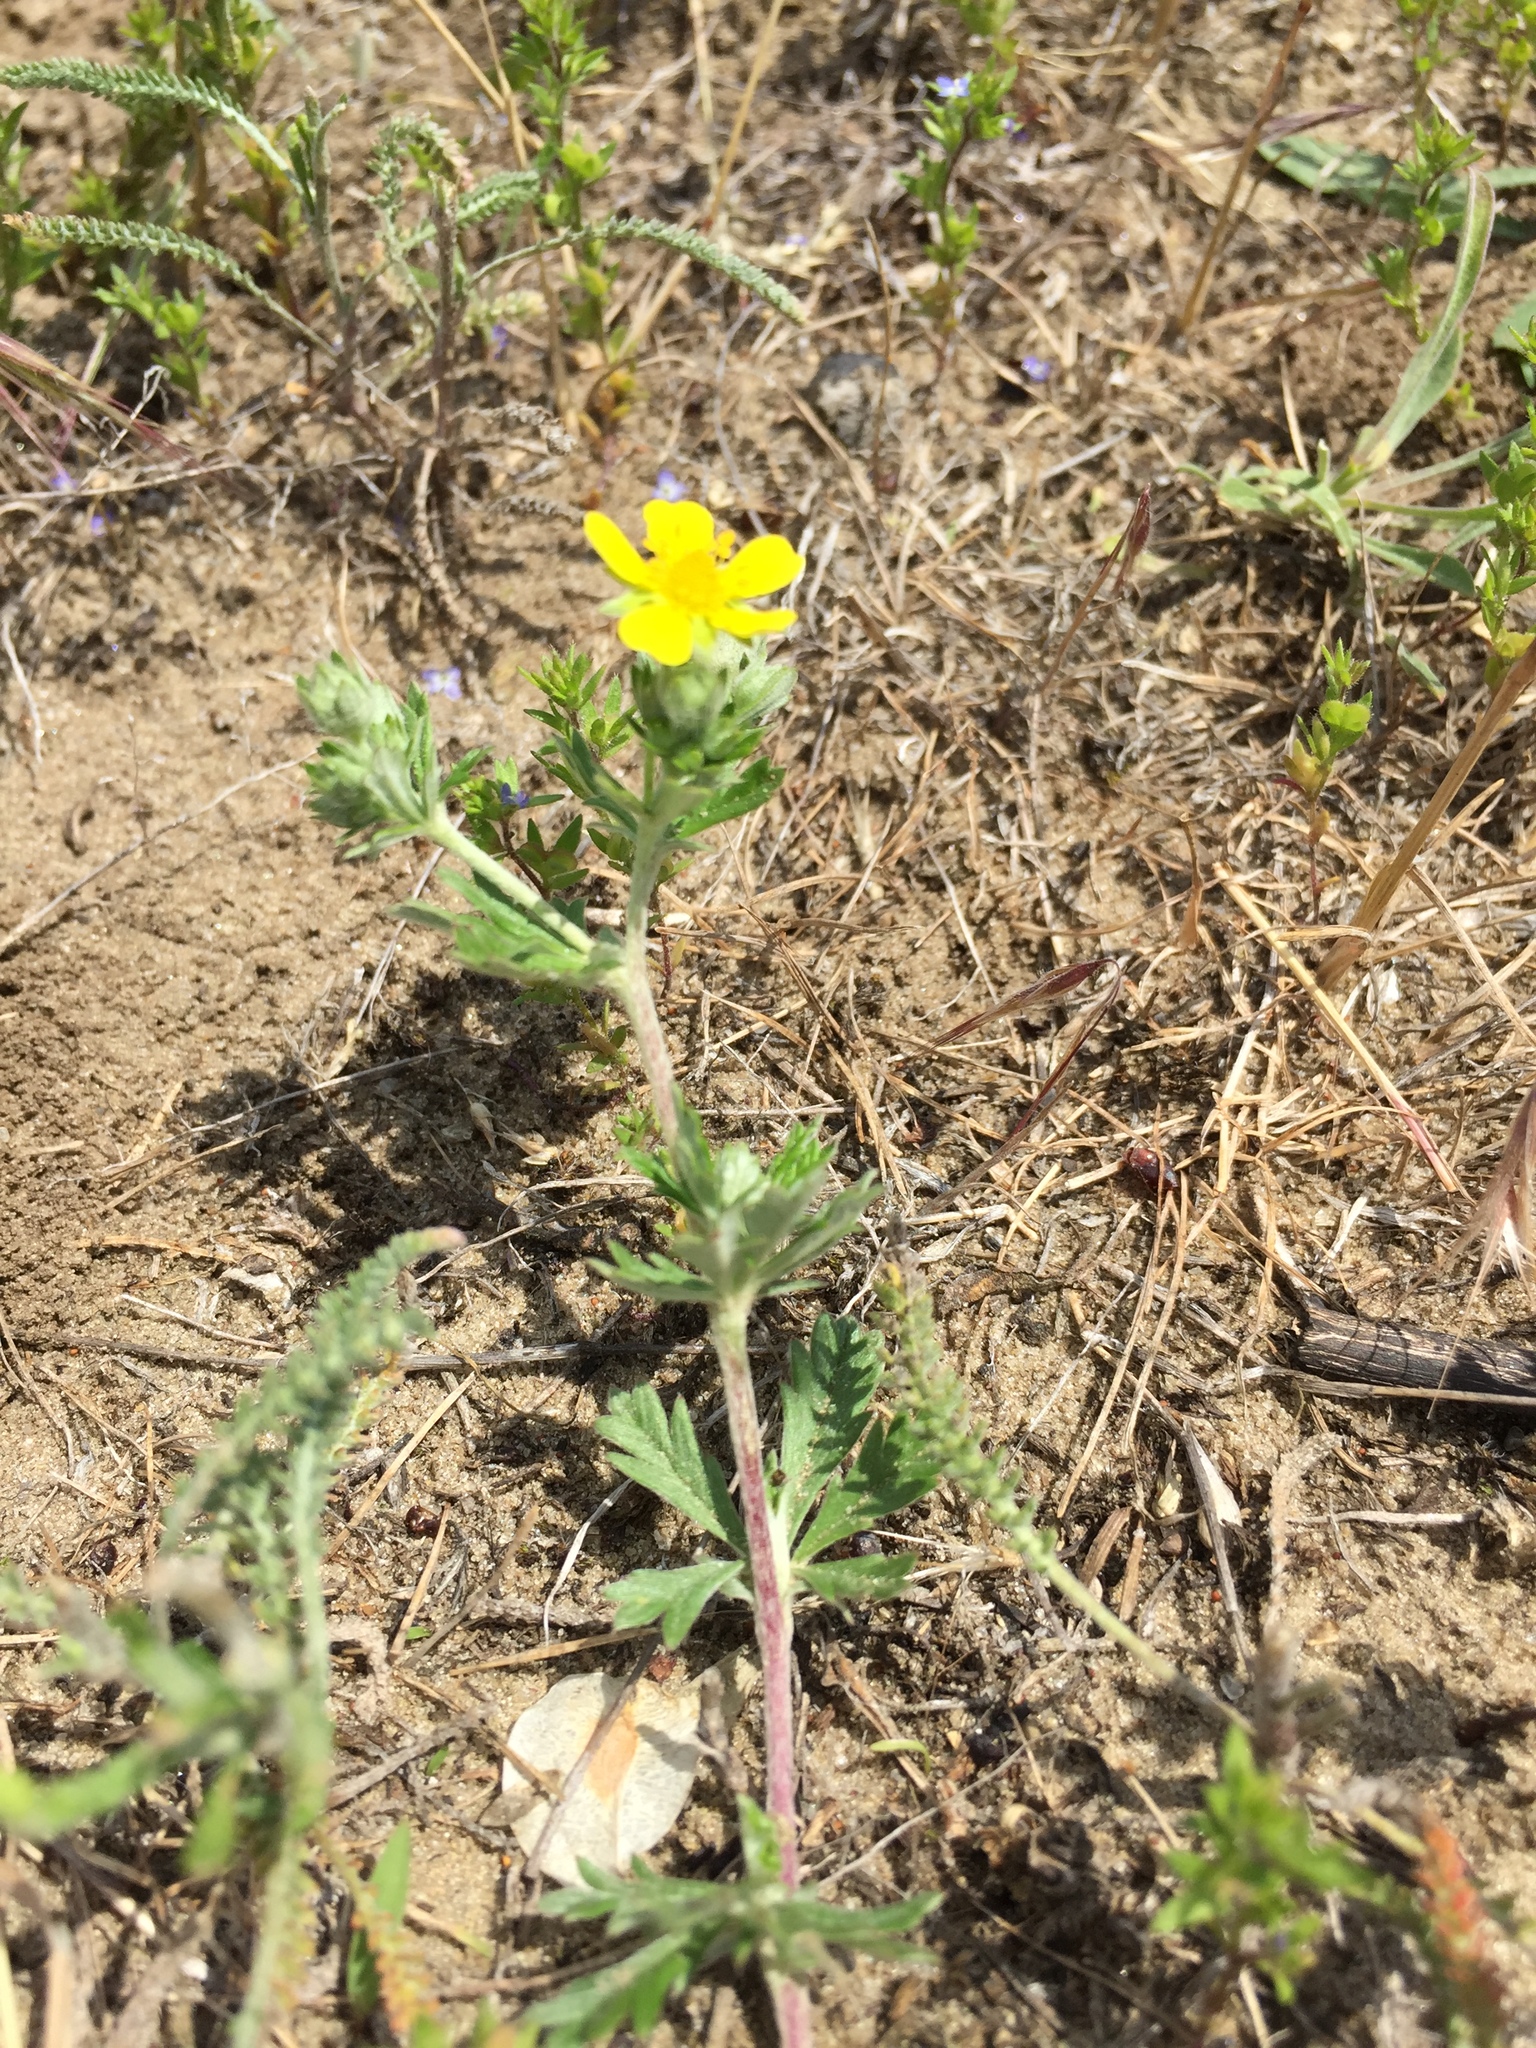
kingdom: Plantae
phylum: Tracheophyta
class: Magnoliopsida
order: Rosales
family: Rosaceae
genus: Potentilla
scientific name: Potentilla argentea
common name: Hoary cinquefoil
